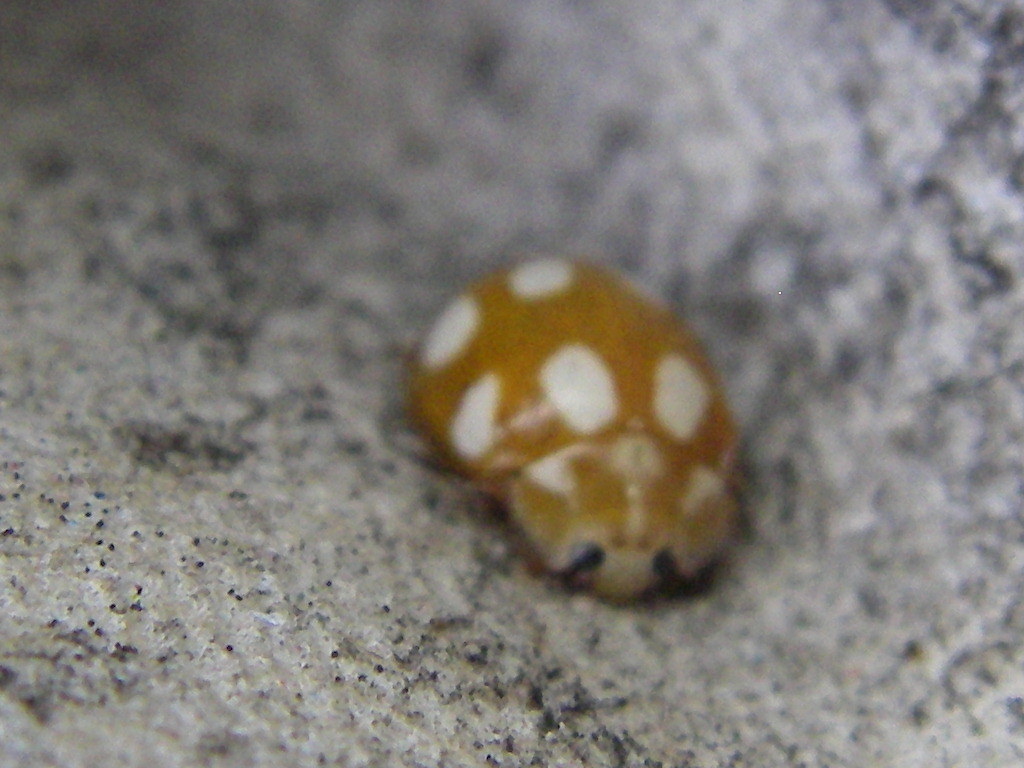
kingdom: Animalia
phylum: Arthropoda
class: Insecta
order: Coleoptera
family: Coccinellidae
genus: Calvia
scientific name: Calvia decemguttata
